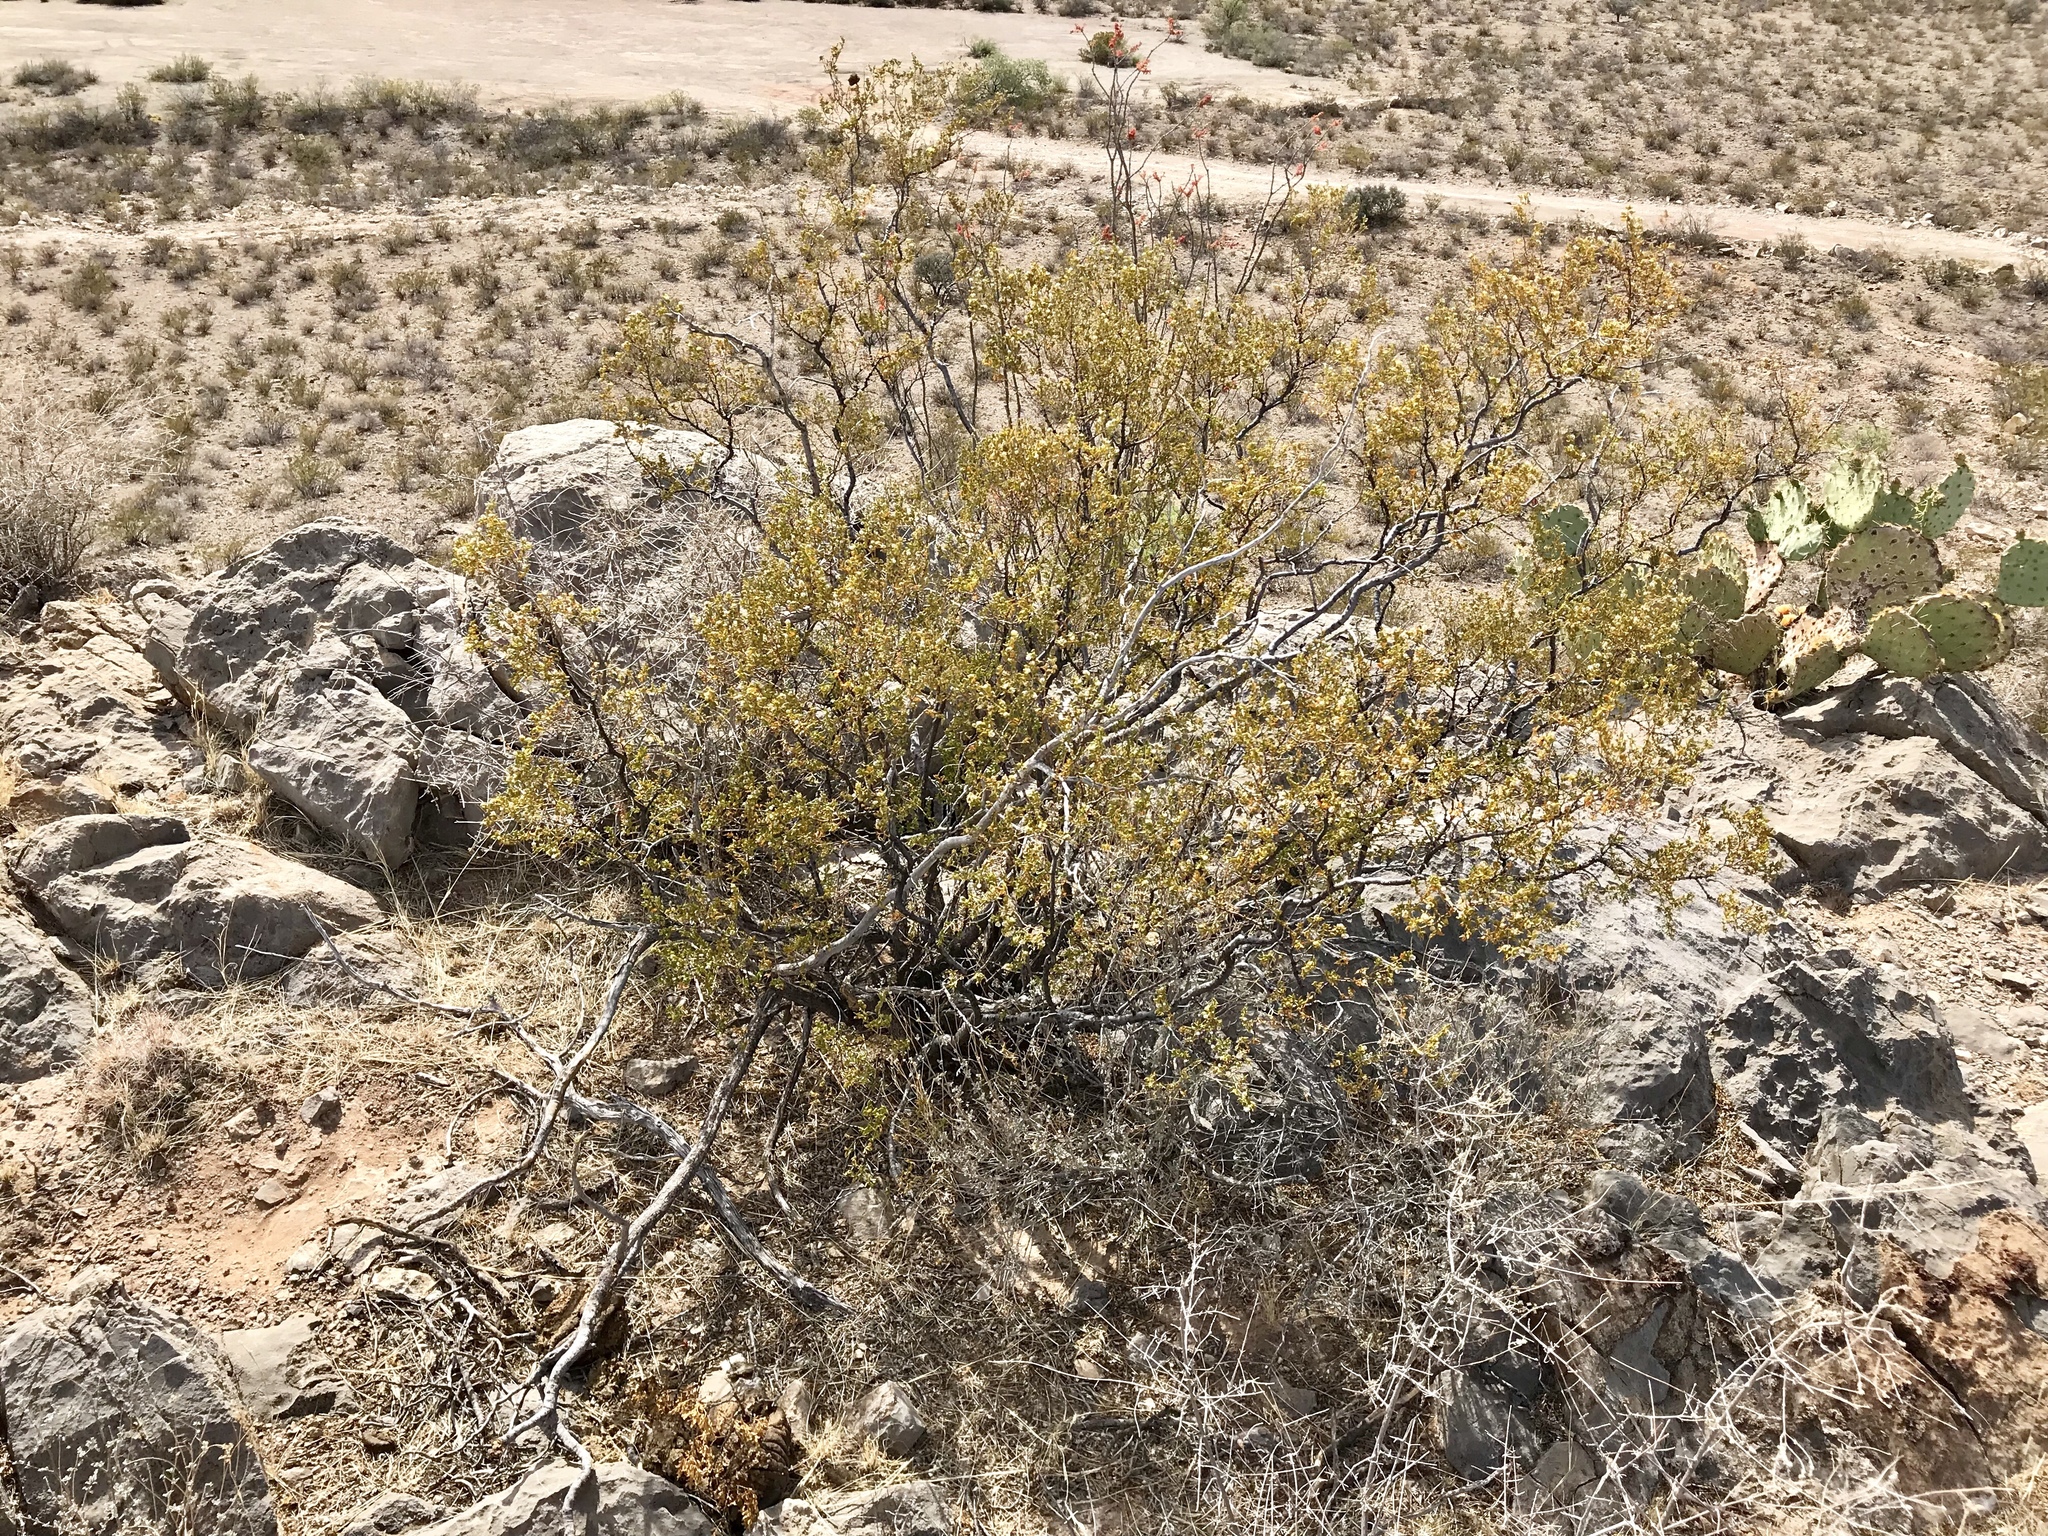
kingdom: Plantae
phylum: Tracheophyta
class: Magnoliopsida
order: Zygophyllales
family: Zygophyllaceae
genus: Larrea
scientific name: Larrea tridentata
